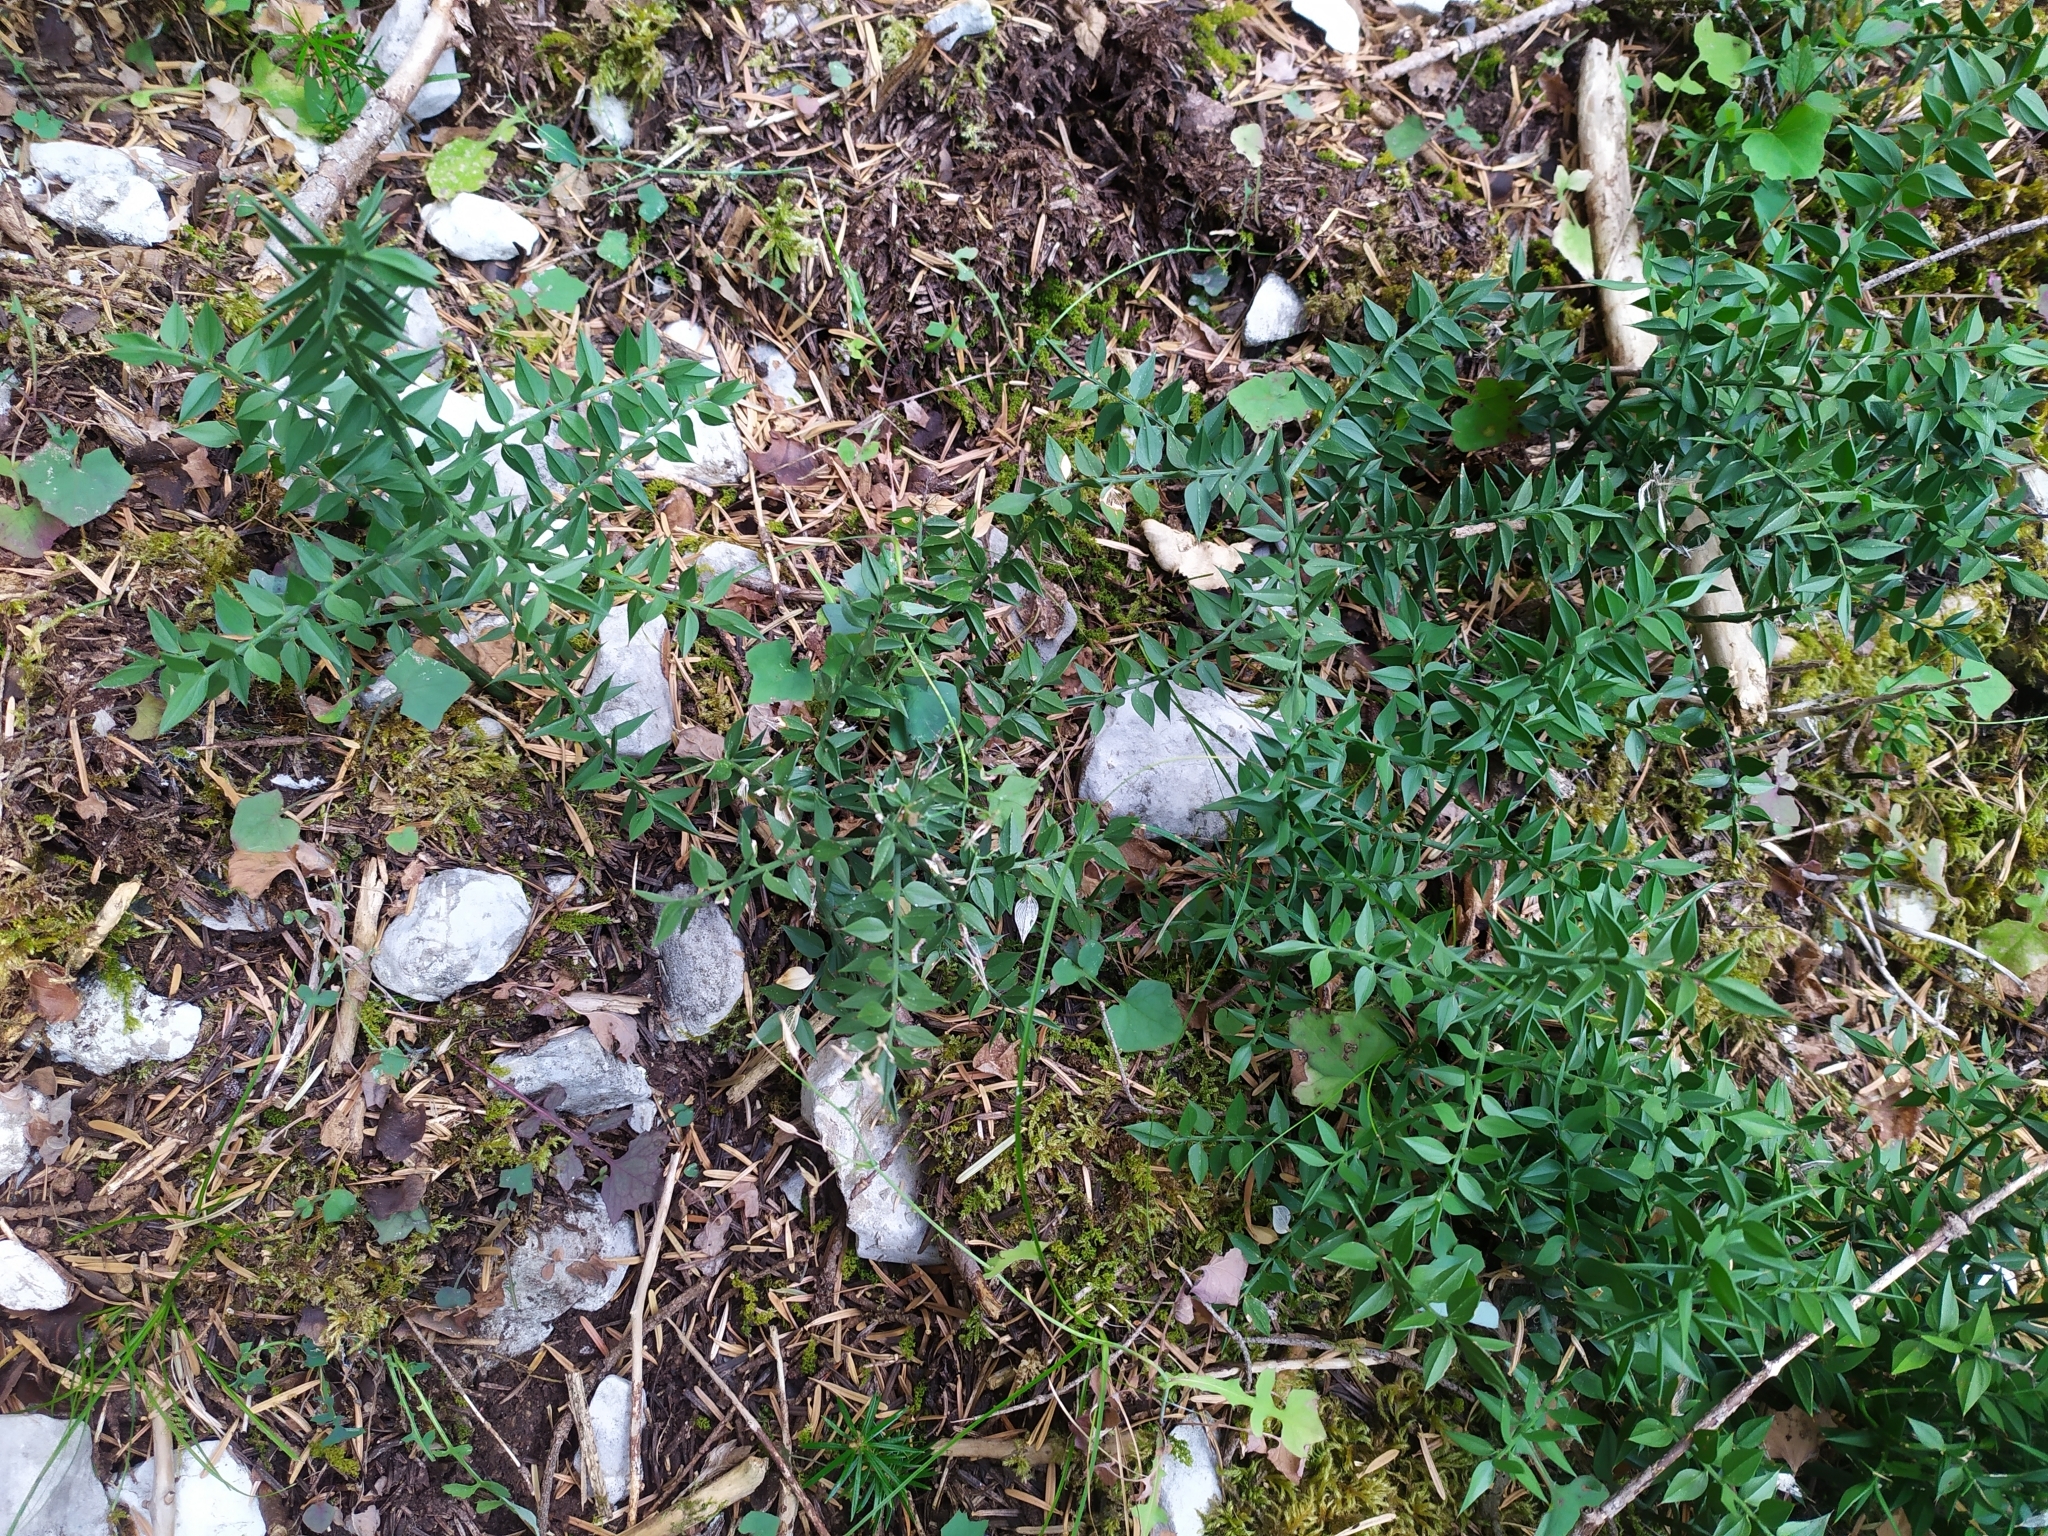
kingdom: Plantae
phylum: Tracheophyta
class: Liliopsida
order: Asparagales
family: Asparagaceae
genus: Ruscus
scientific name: Ruscus aculeatus
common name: Butcher's-broom
